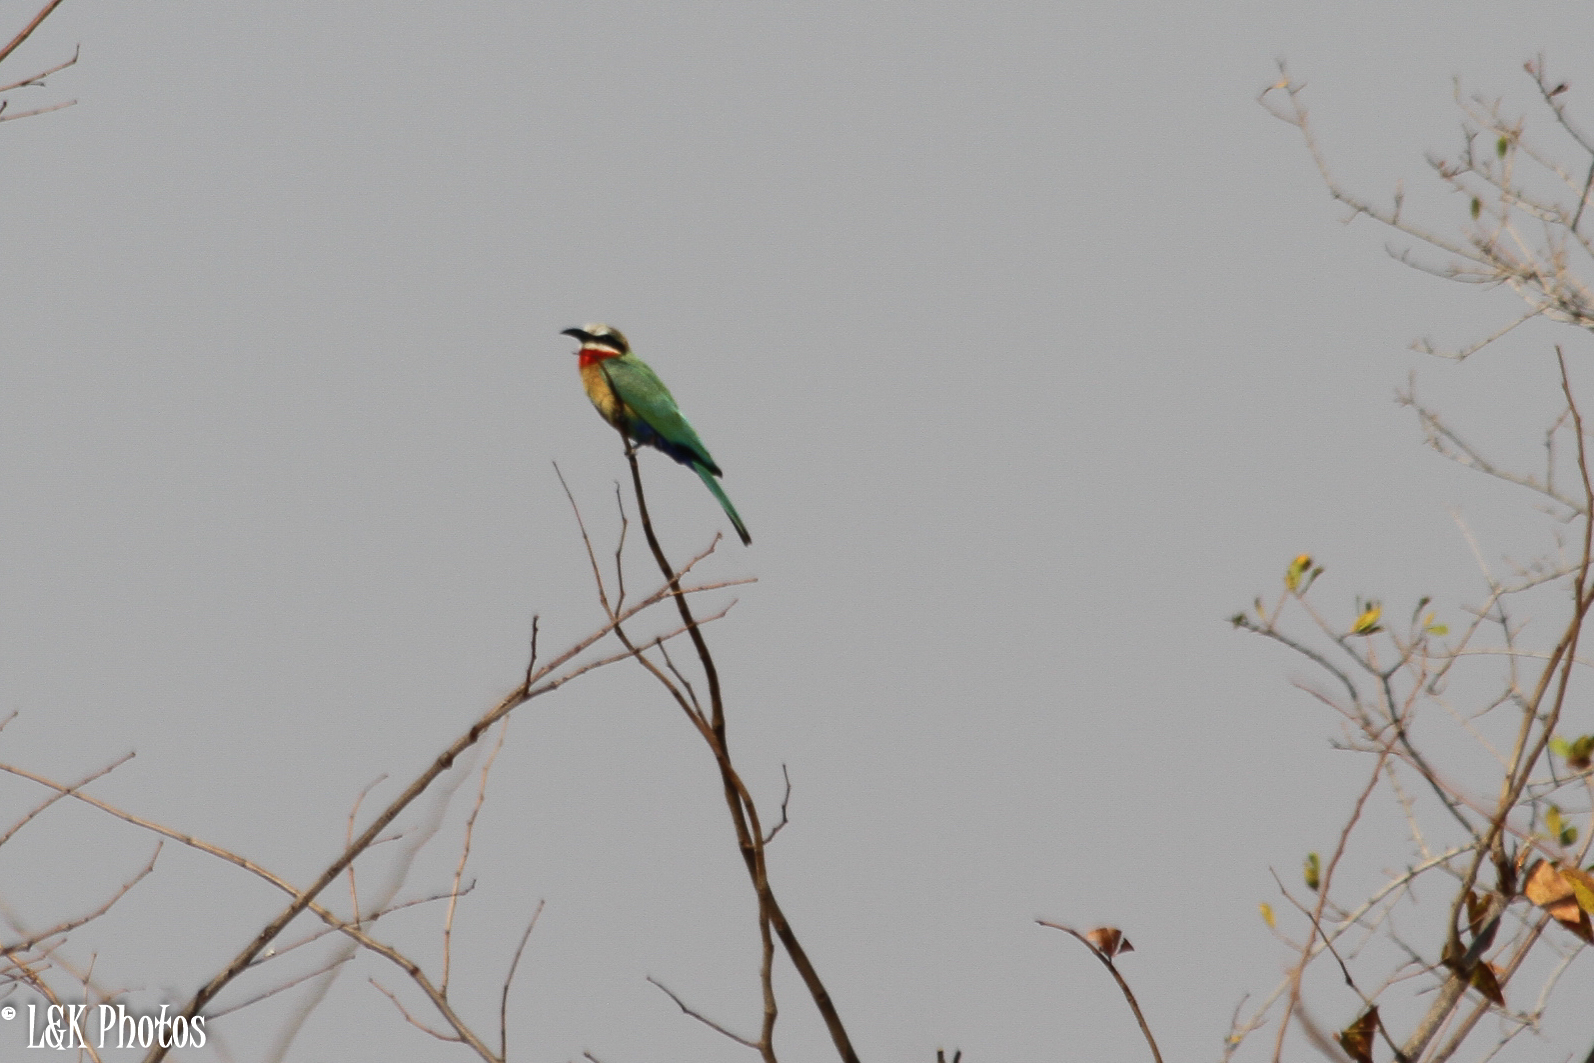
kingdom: Animalia
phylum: Chordata
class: Aves
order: Coraciiformes
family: Meropidae
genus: Merops
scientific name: Merops bullockoides
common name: White-fronted bee-eater
